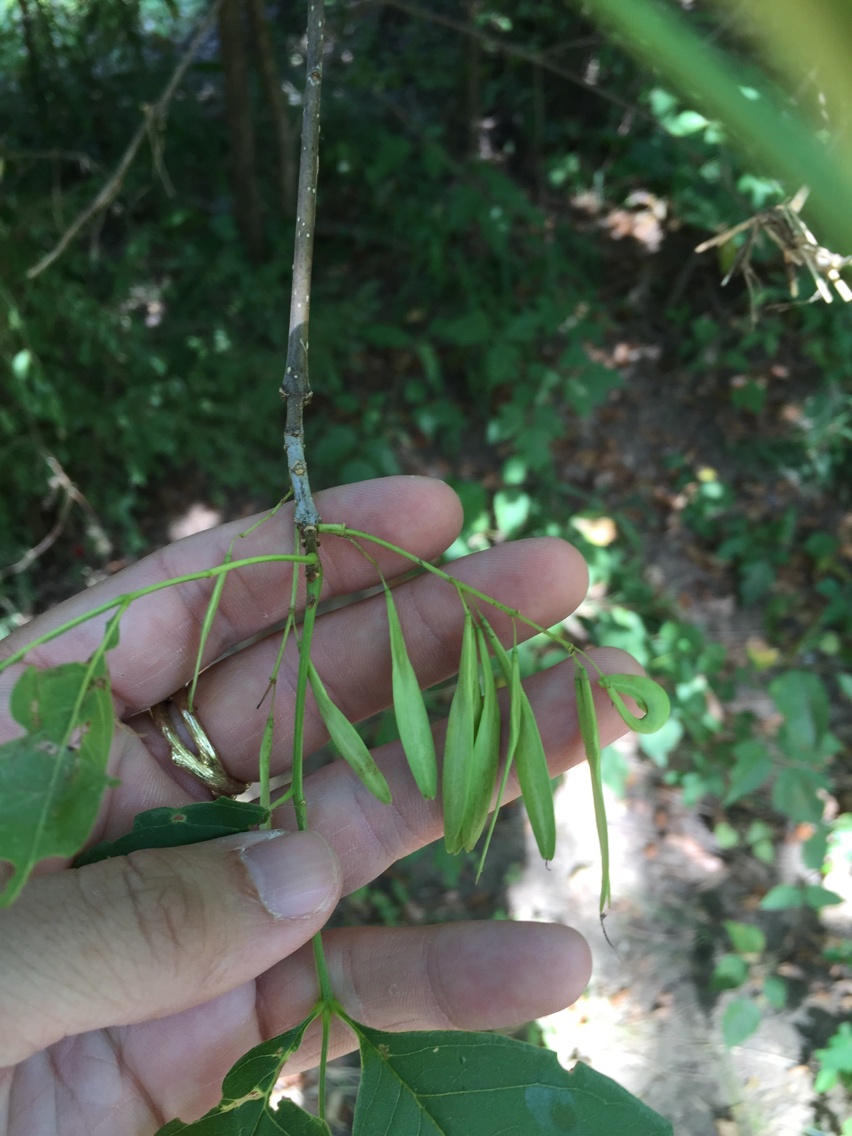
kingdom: Plantae
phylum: Tracheophyta
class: Magnoliopsida
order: Lamiales
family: Oleaceae
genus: Fraxinus
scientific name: Fraxinus pennsylvanica
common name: Green ash
